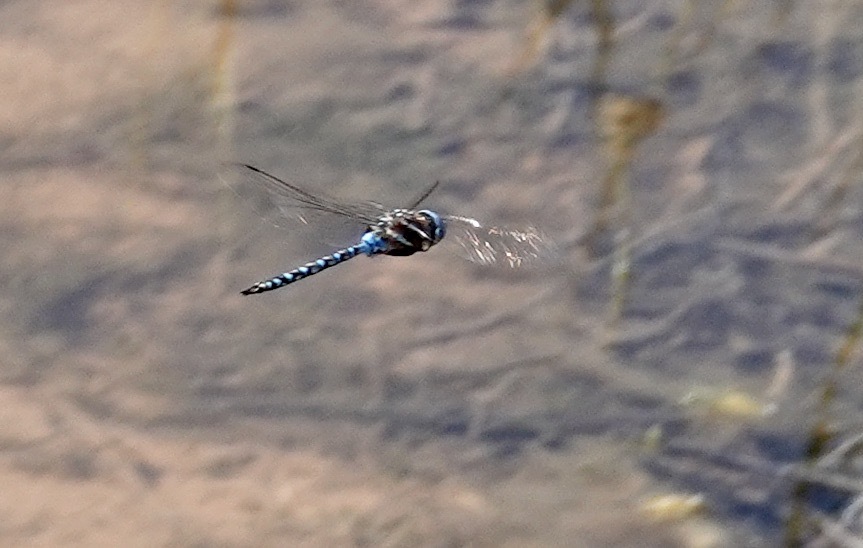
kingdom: Animalia
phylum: Arthropoda
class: Insecta
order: Odonata
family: Aeshnidae
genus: Rhionaeschna
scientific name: Rhionaeschna multicolor
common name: Blue-eyed darner
